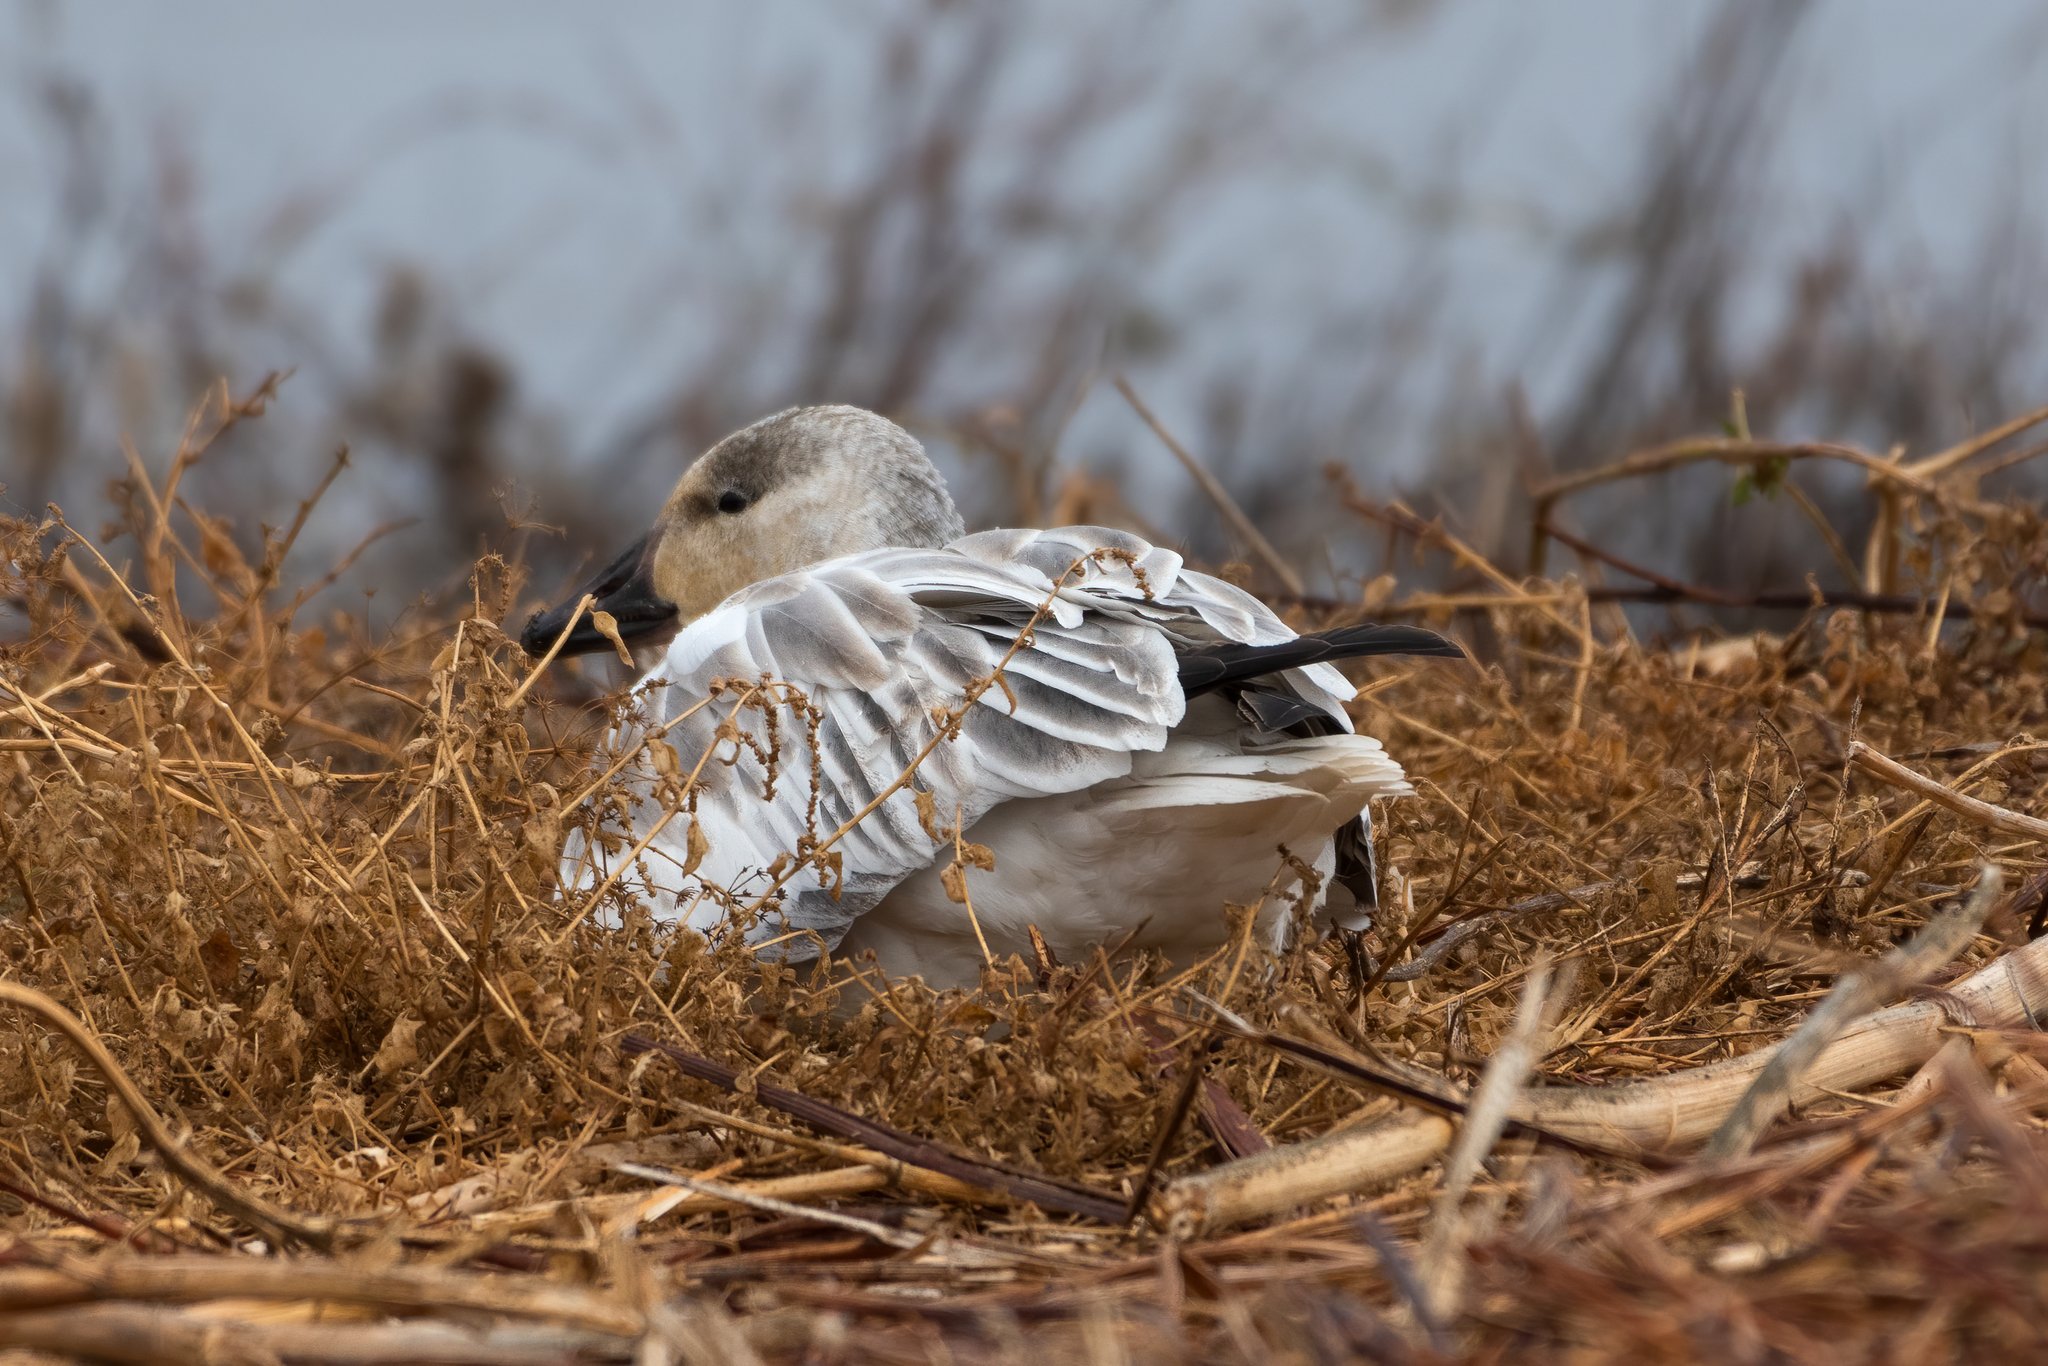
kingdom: Animalia
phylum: Chordata
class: Aves
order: Anseriformes
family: Anatidae
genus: Anser
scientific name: Anser caerulescens
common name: Snow goose
